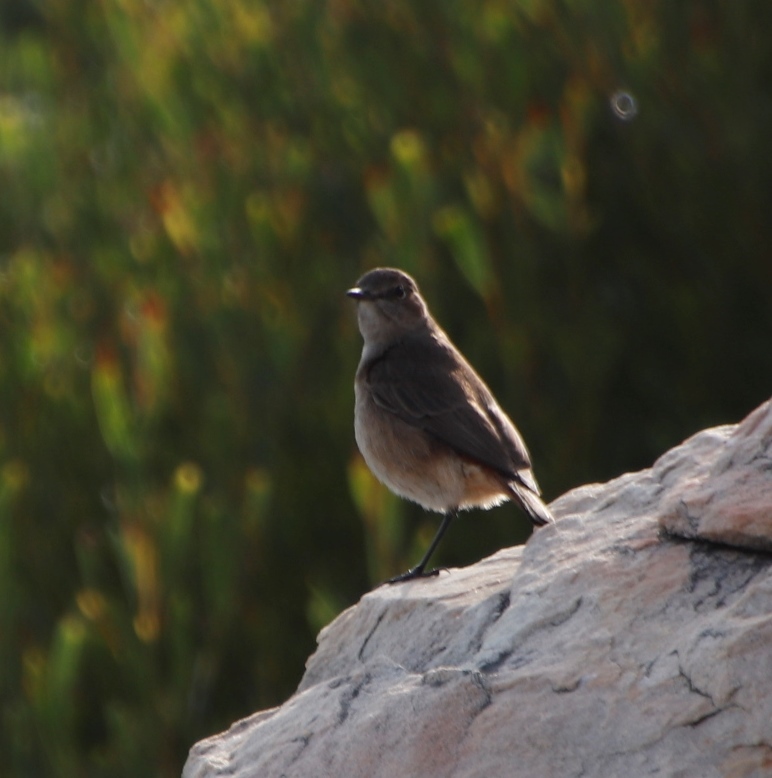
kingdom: Animalia
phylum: Chordata
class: Aves
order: Passeriformes
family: Muscicapidae
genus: Oenanthe
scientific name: Oenanthe familiaris
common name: Familiar chat
